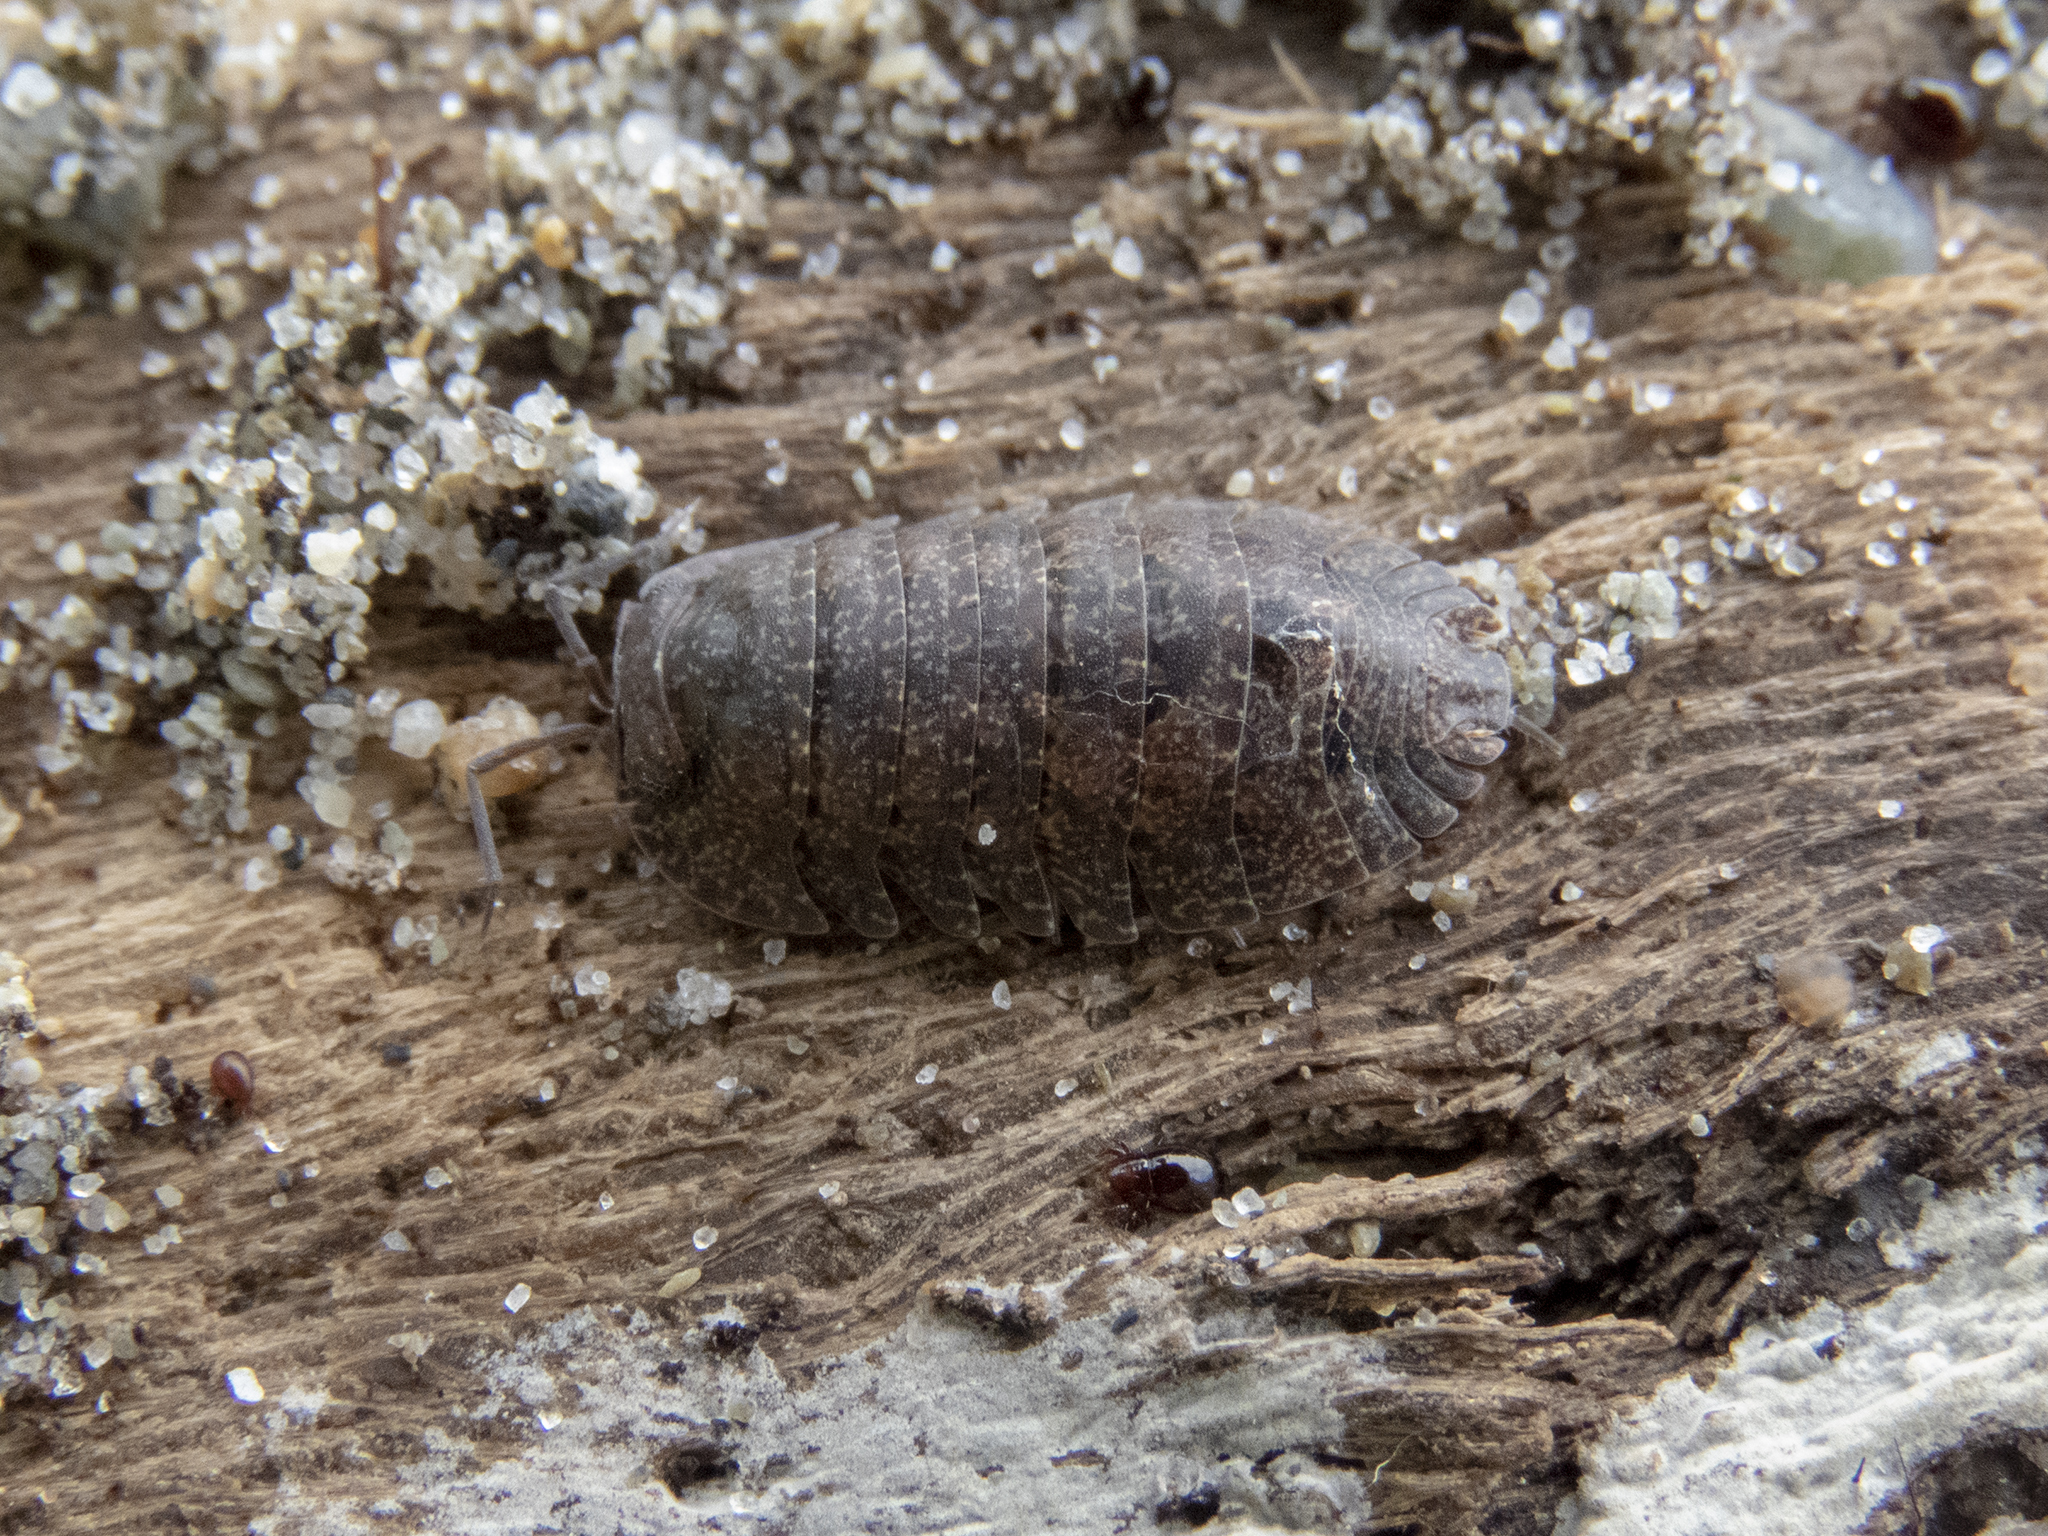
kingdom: Animalia
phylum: Arthropoda
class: Malacostraca
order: Isopoda
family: Armadillidae
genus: Cubaris
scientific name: Cubaris tarangensis
